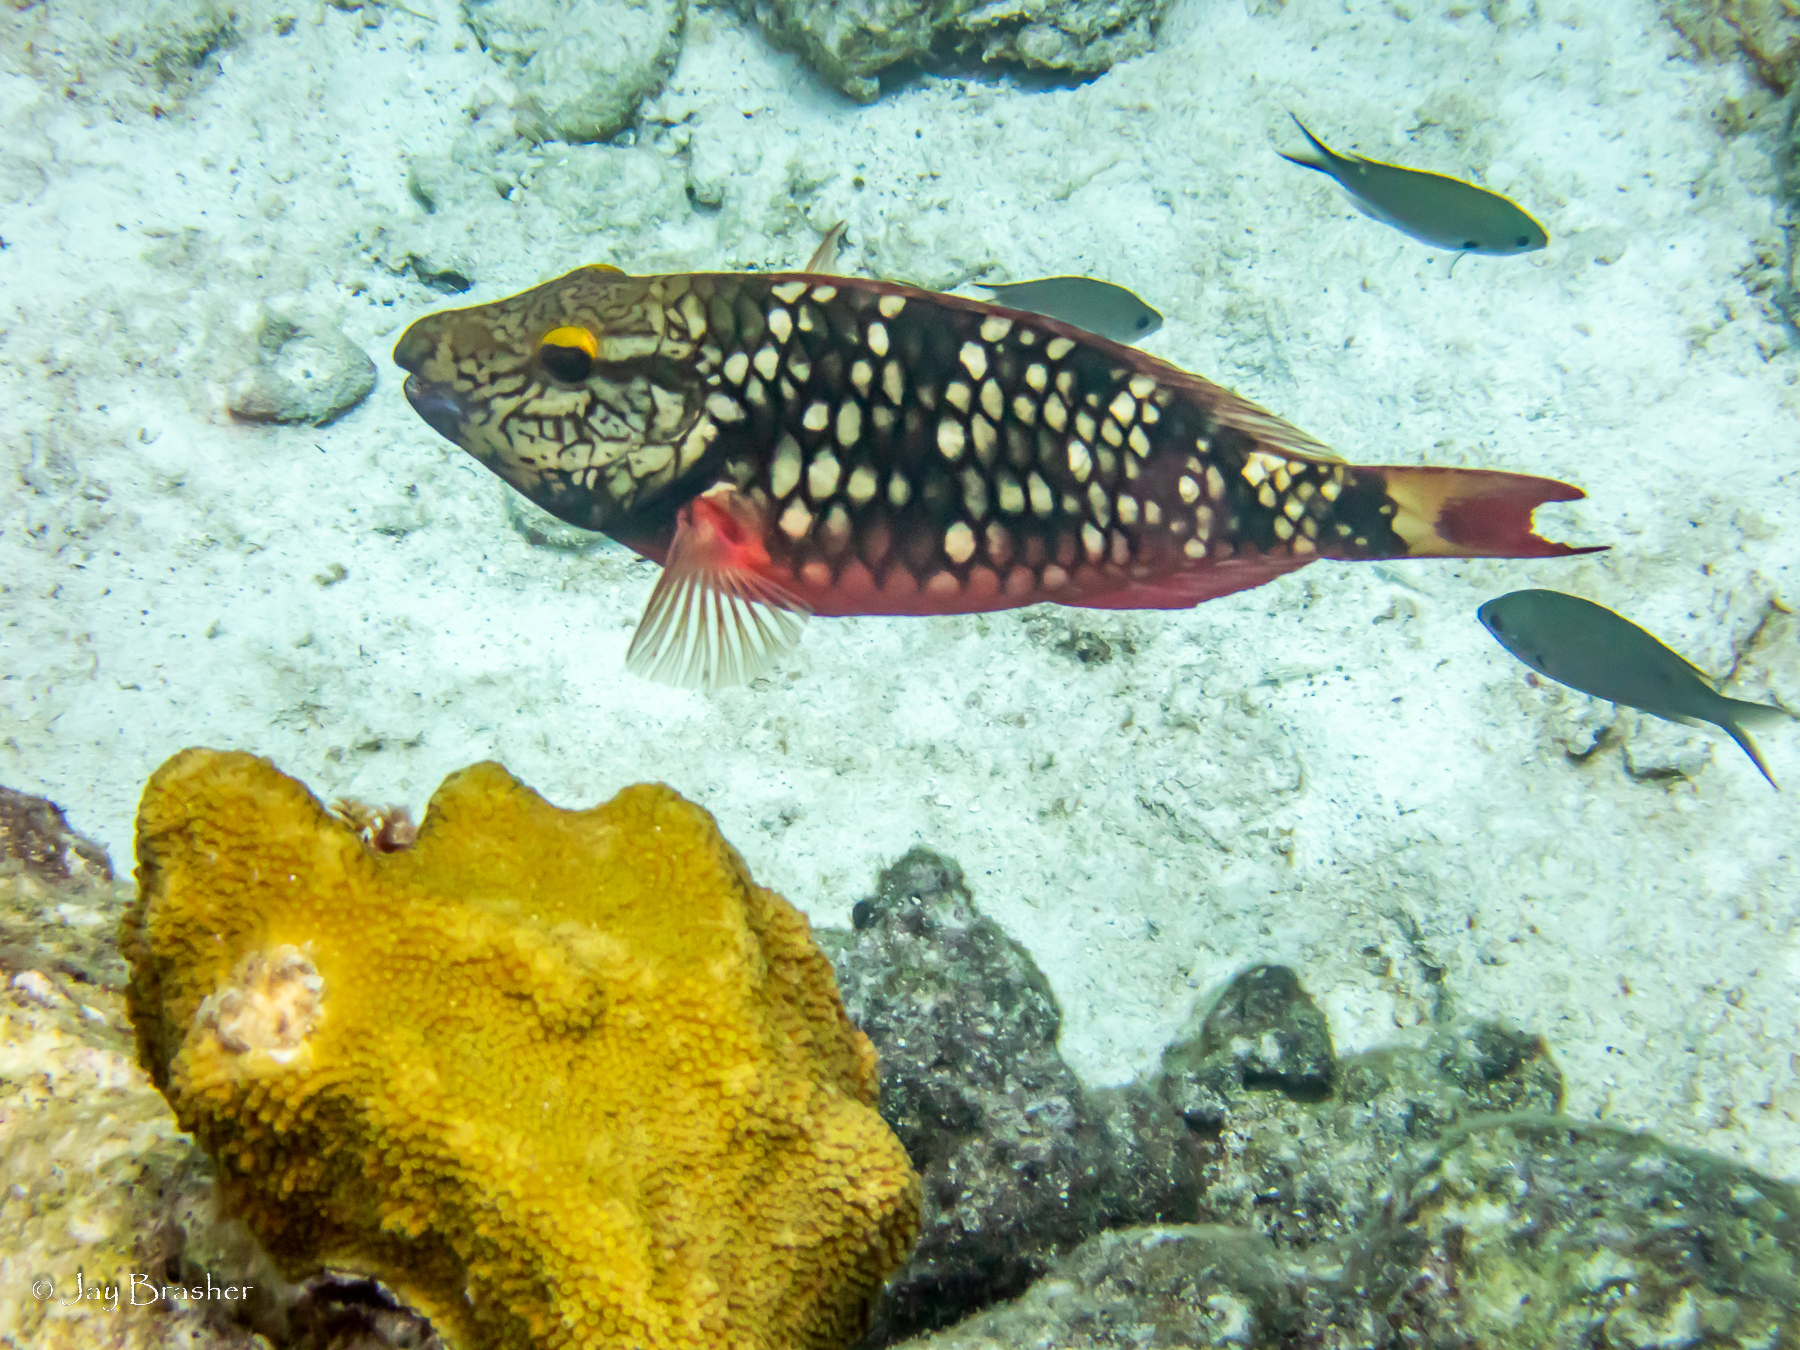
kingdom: Animalia
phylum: Chordata
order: Perciformes
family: Scaridae
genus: Sparisoma
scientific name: Sparisoma viride
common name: Stoplight parrotfish
